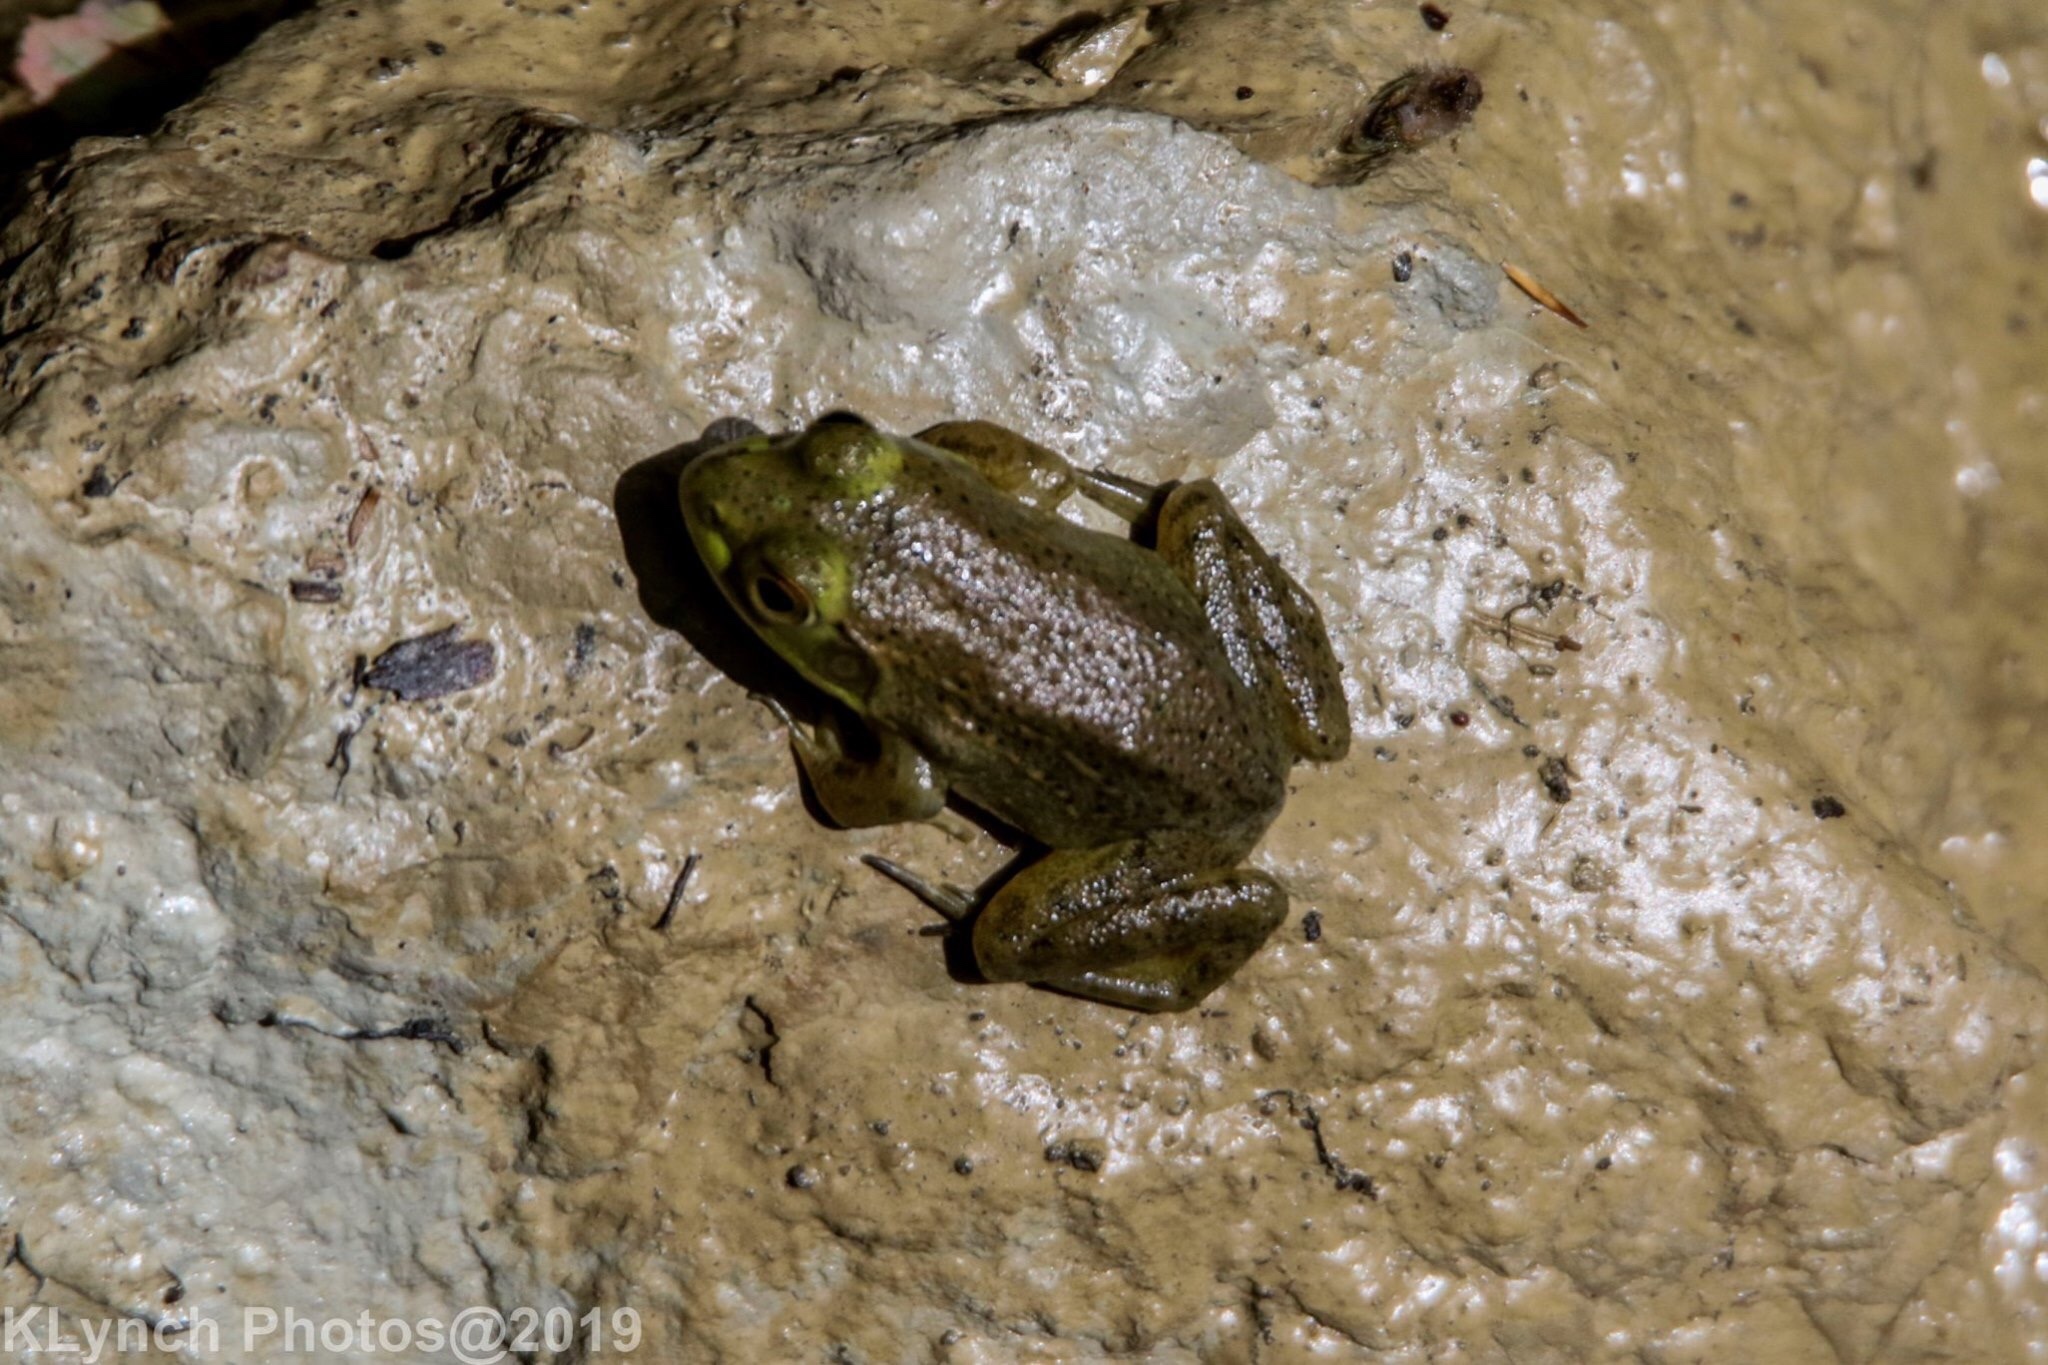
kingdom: Animalia
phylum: Chordata
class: Amphibia
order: Anura
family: Ranidae
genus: Lithobates
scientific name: Lithobates clamitans
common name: Green frog
